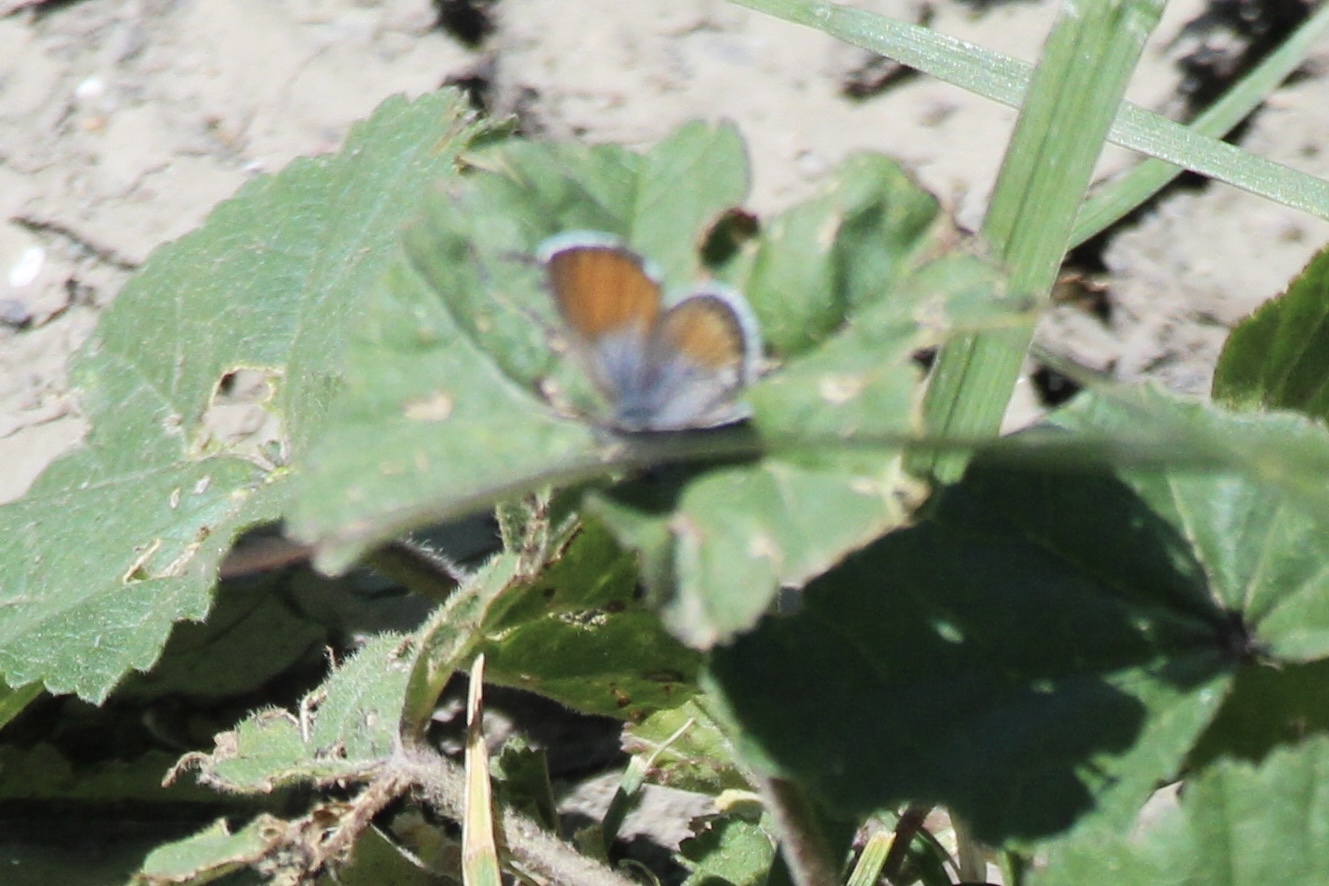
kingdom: Animalia
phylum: Arthropoda
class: Insecta
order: Lepidoptera
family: Lycaenidae
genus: Brephidium
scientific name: Brephidium exilis
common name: Pygmy blue
